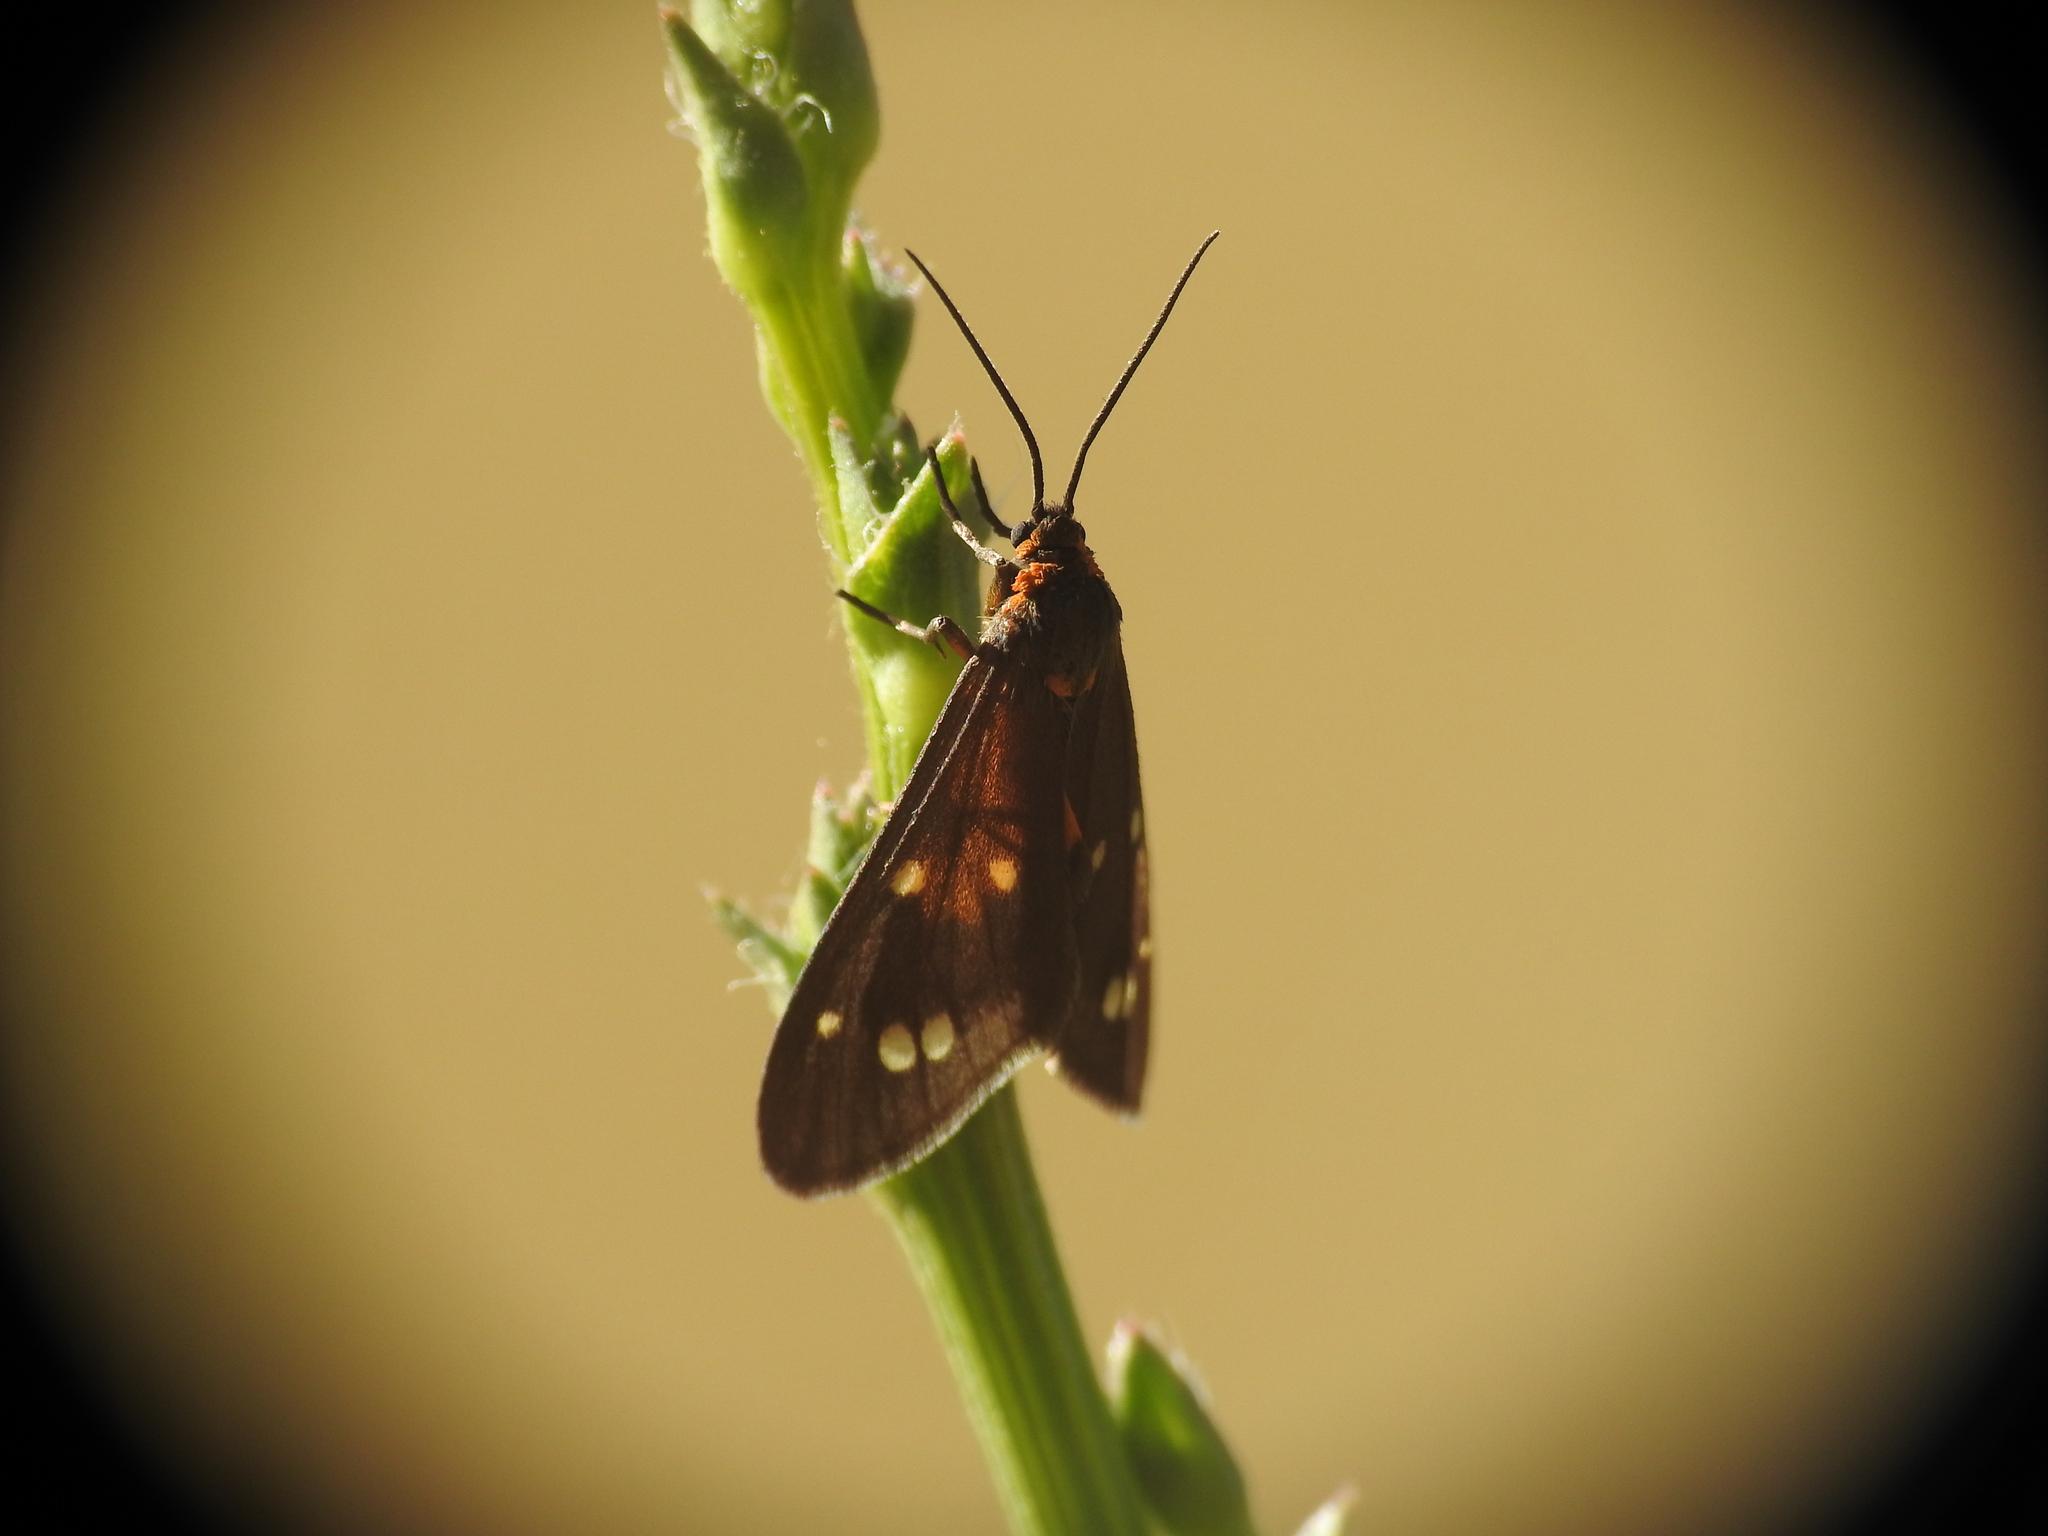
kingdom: Animalia
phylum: Arthropoda
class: Insecta
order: Lepidoptera
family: Erebidae
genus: Dysauxes
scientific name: Dysauxes punctata
